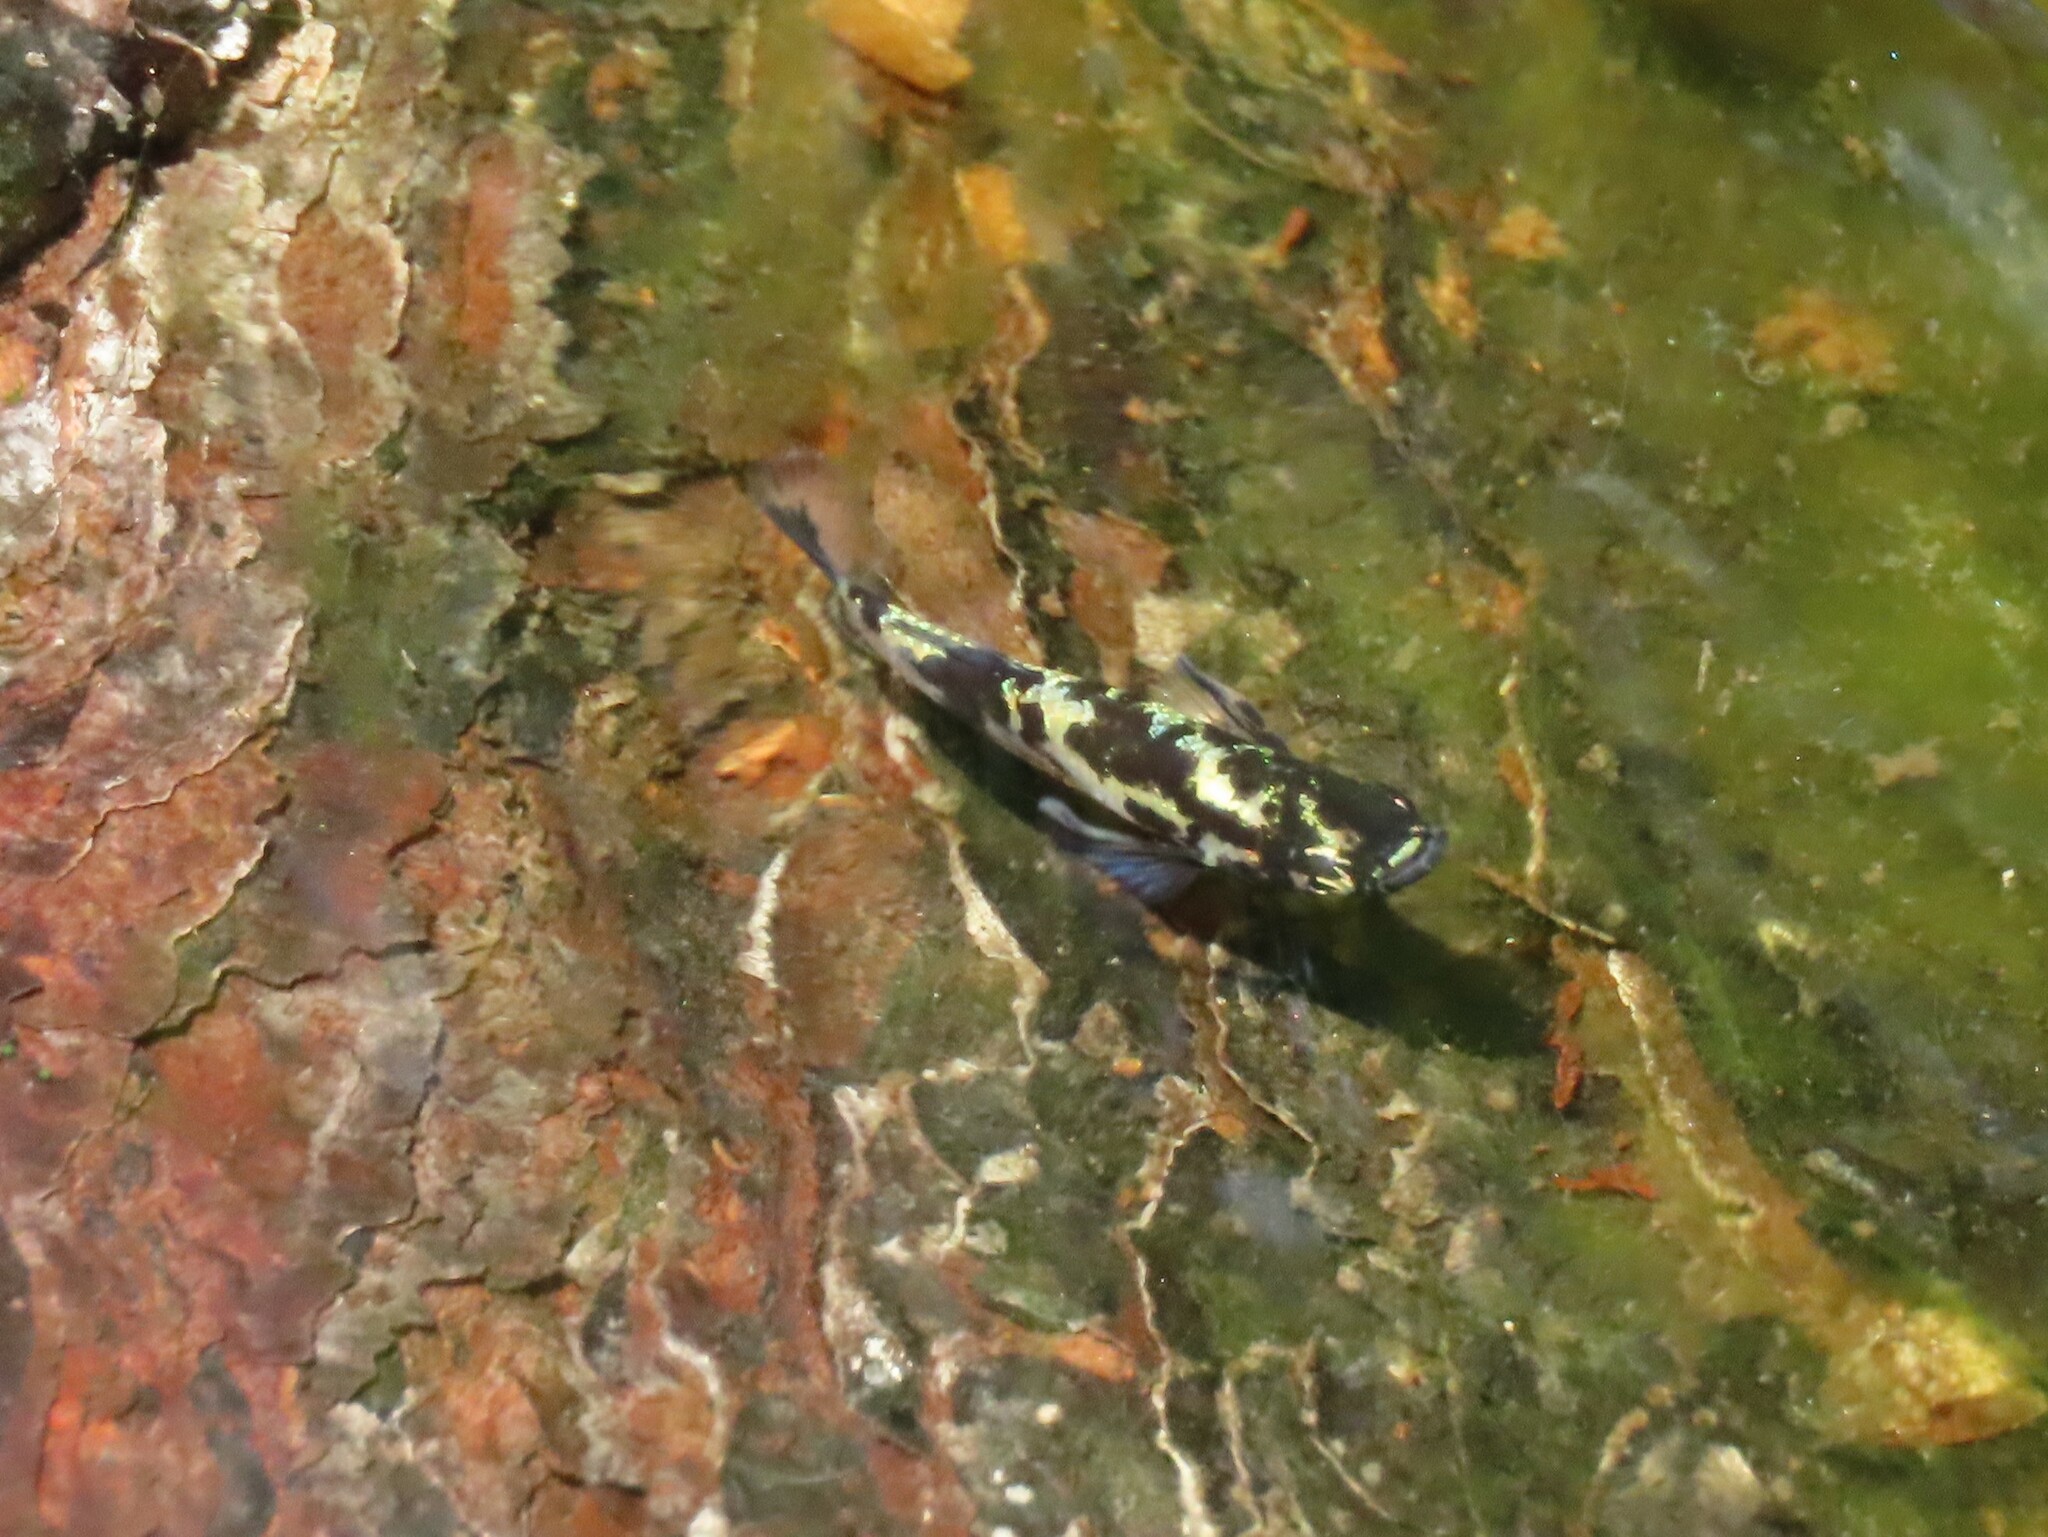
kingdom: Animalia
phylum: Chordata
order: Cyprinodontiformes
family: Poeciliidae
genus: Gambusia
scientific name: Gambusia holbrooki
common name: Eastern mosquitofish
